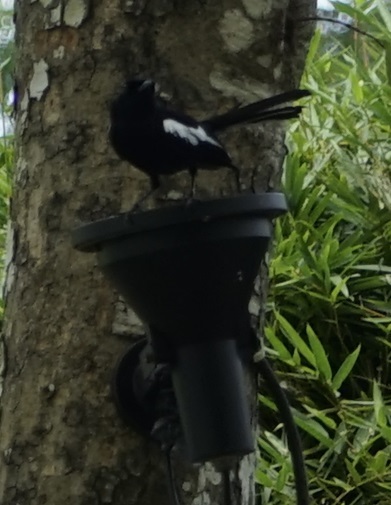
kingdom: Animalia
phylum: Chordata
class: Aves
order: Passeriformes
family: Muscicapidae
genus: Copsychus
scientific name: Copsychus saularis
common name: Oriental magpie-robin
